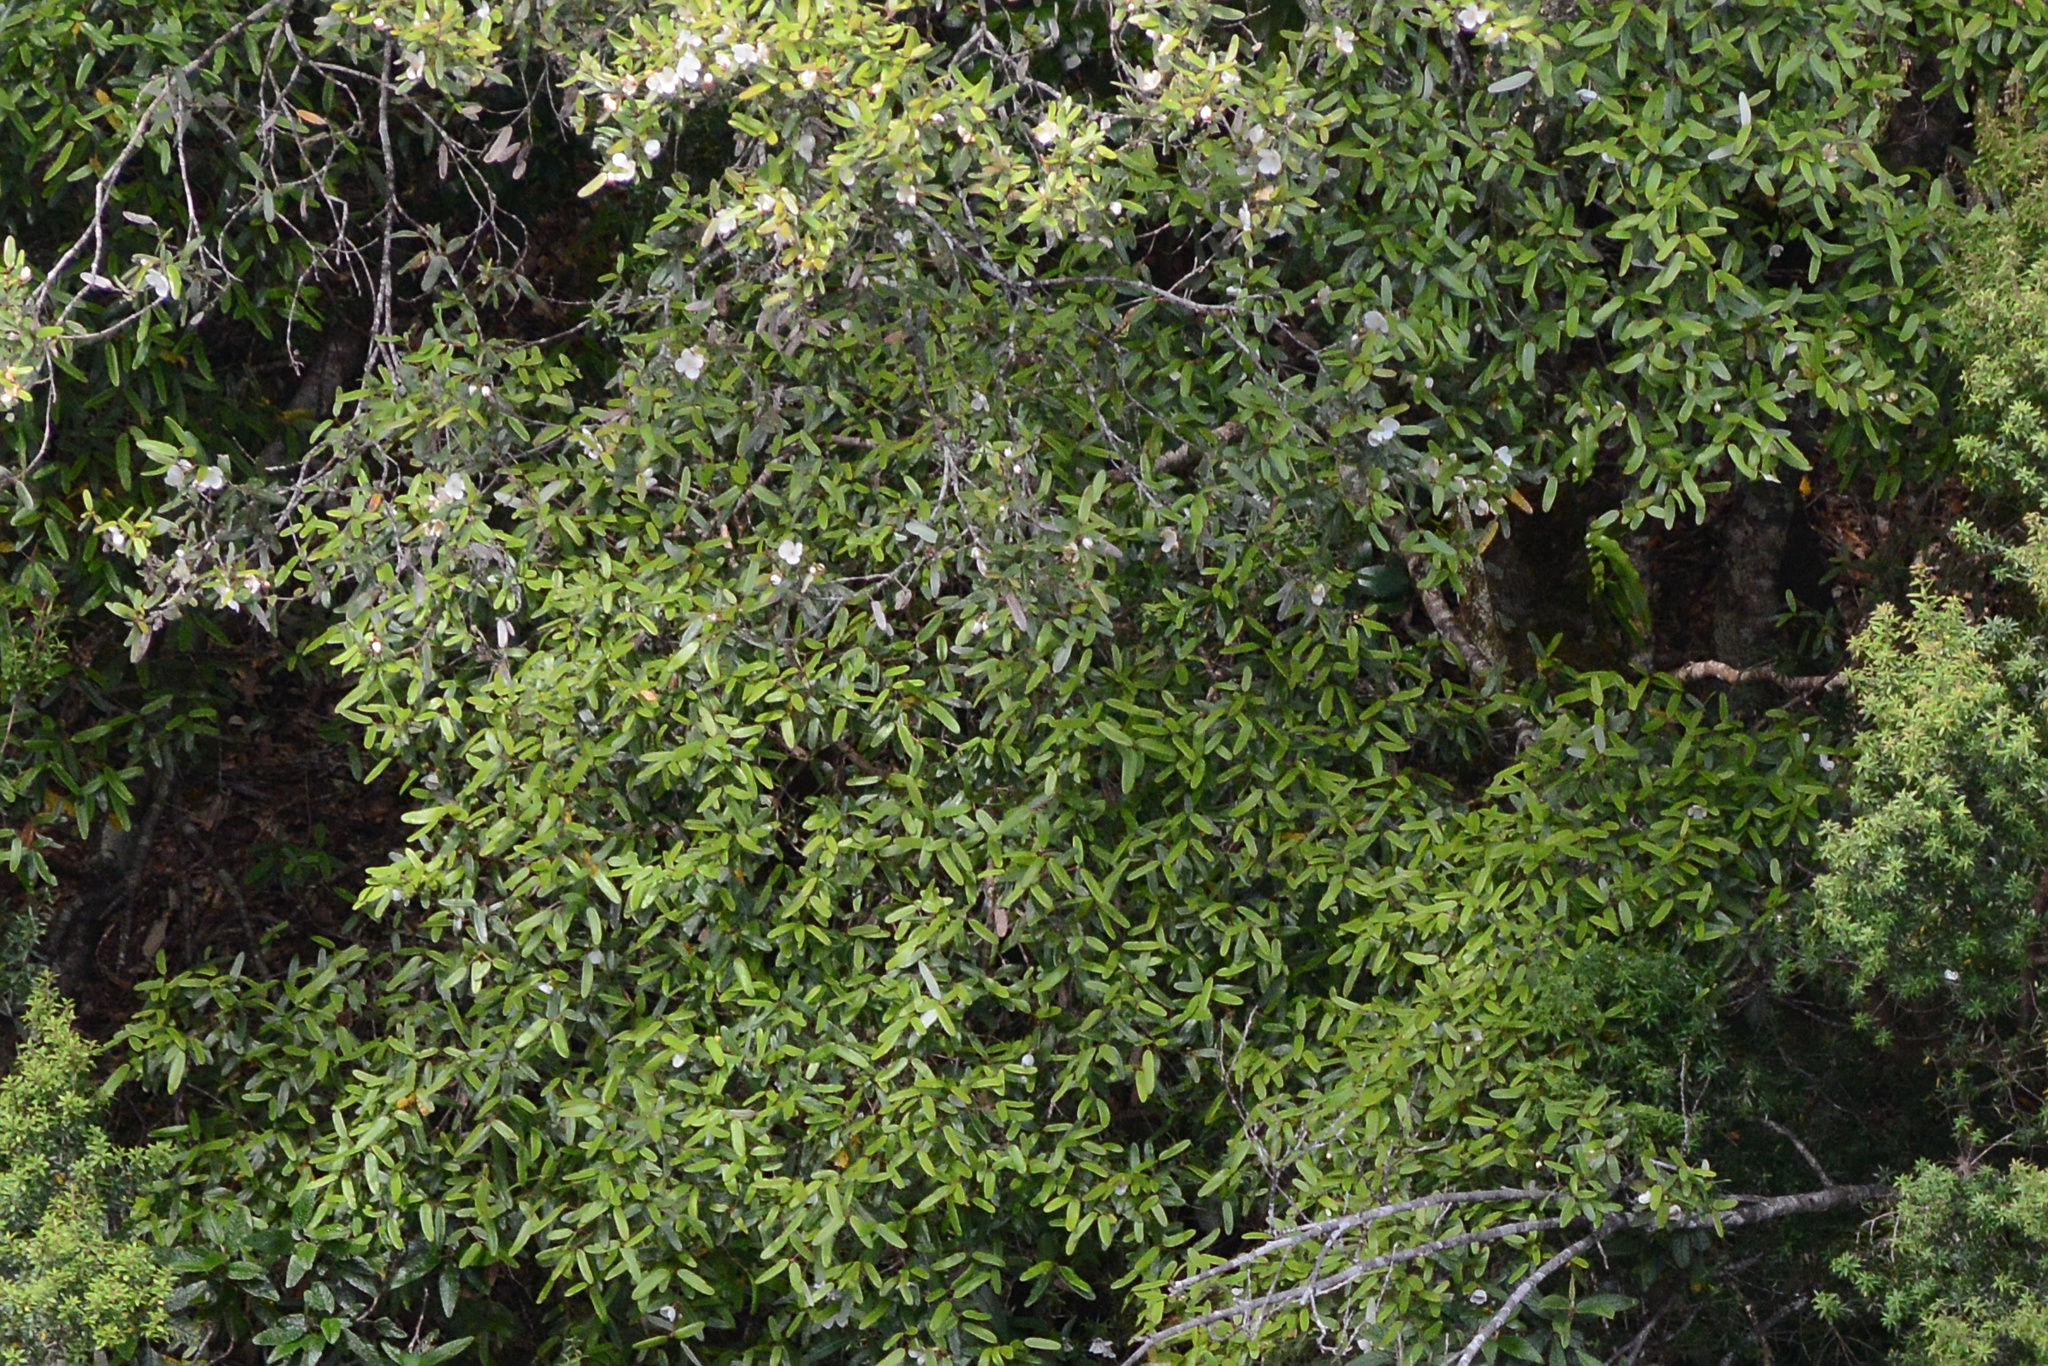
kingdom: Plantae
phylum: Tracheophyta
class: Magnoliopsida
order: Oxalidales
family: Cunoniaceae
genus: Eucryphia
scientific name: Eucryphia lucida
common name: Leatherwood
